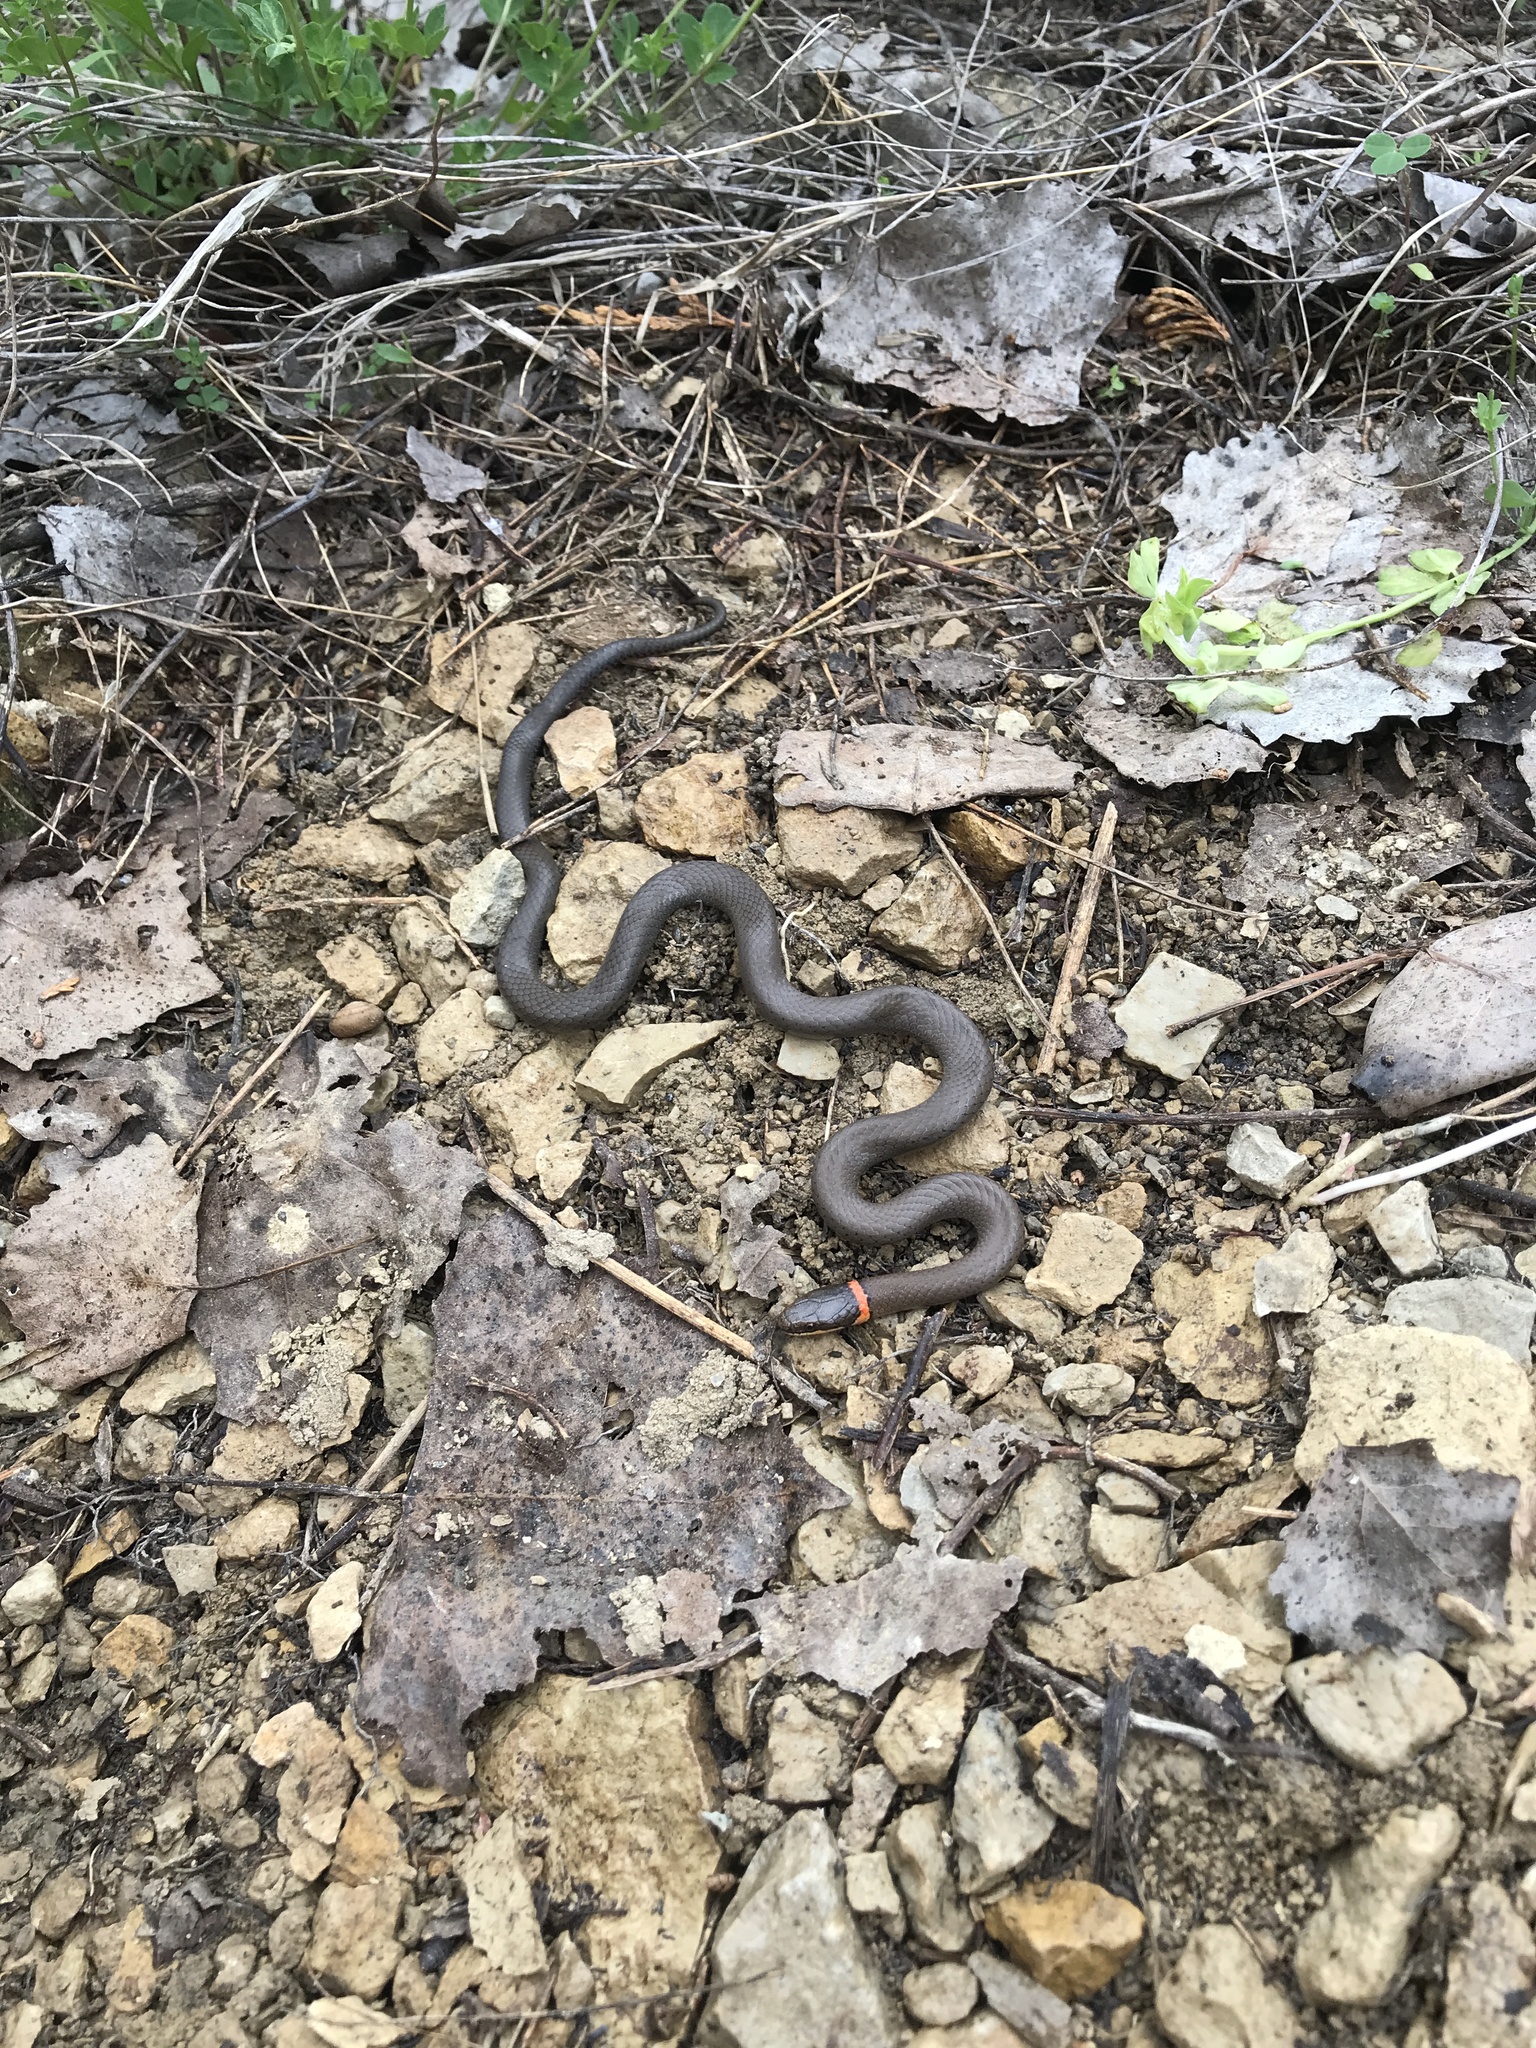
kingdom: Animalia
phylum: Chordata
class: Squamata
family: Colubridae
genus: Diadophis
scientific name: Diadophis punctatus
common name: Ringneck snake
